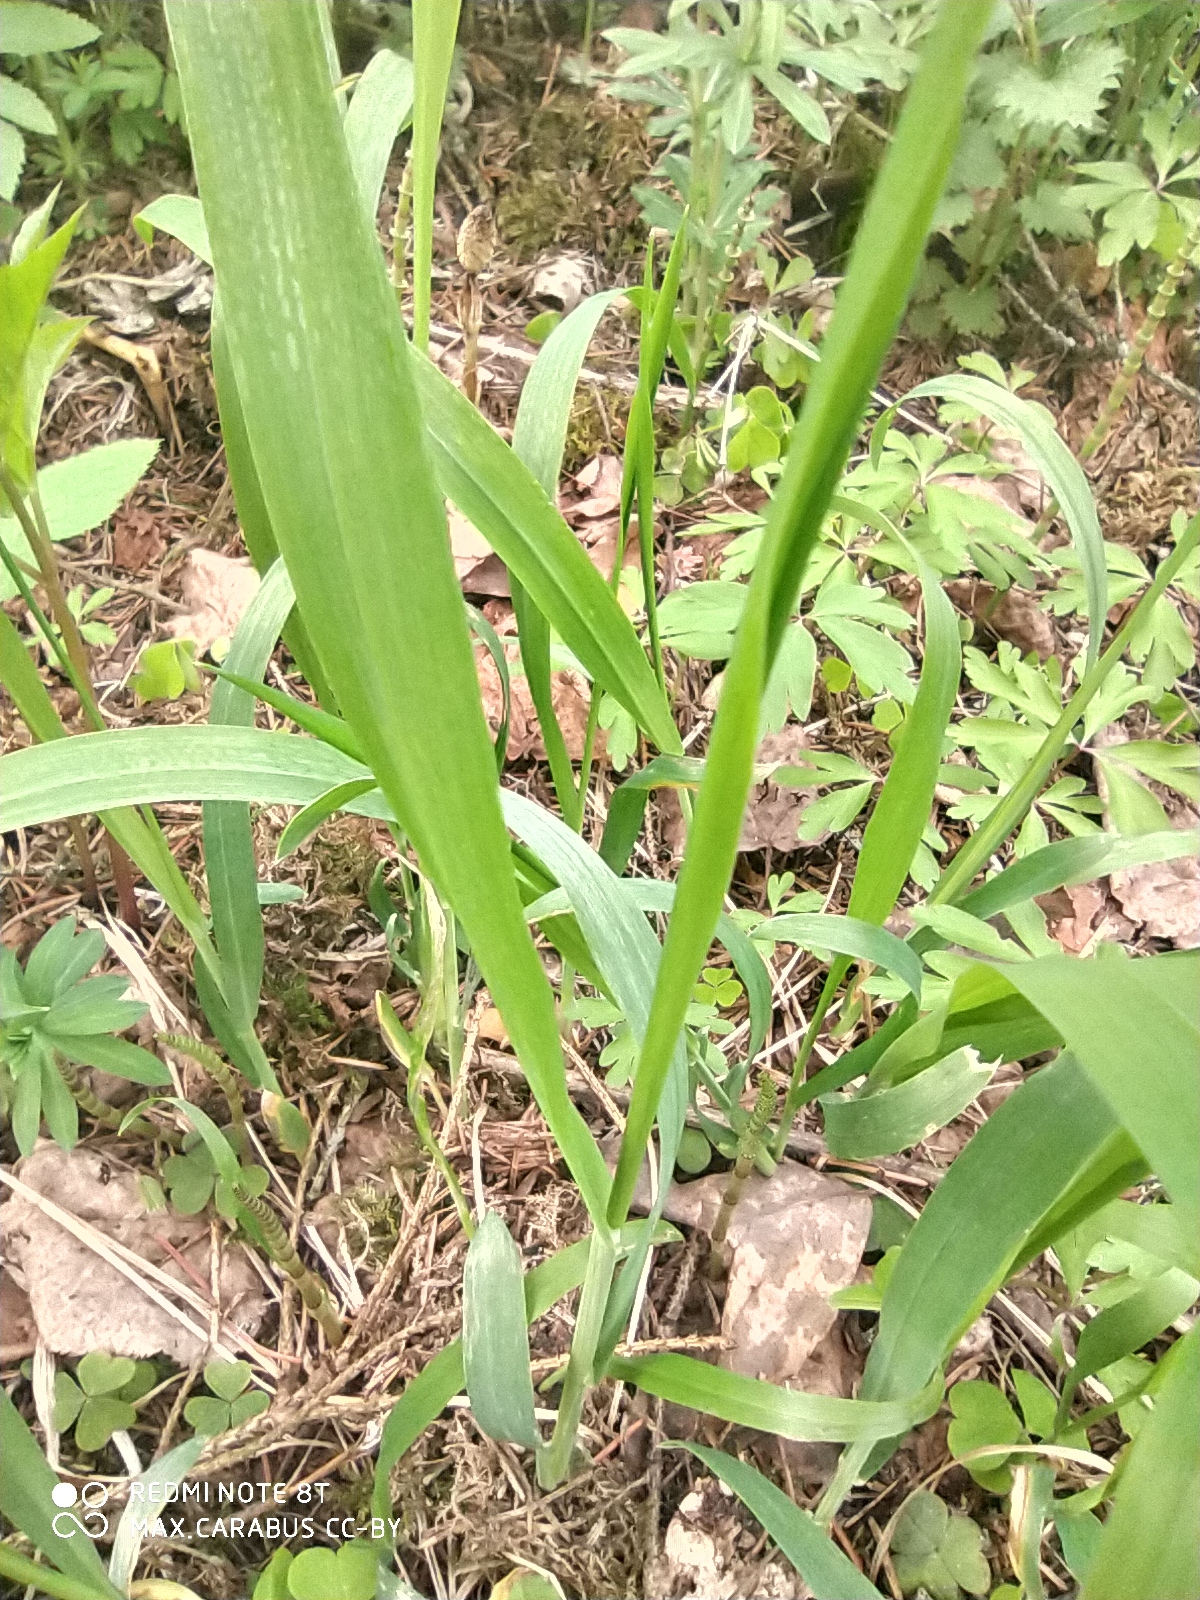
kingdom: Plantae
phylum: Tracheophyta
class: Liliopsida
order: Poales
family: Poaceae
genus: Milium
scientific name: Milium effusum
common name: Wood millet
